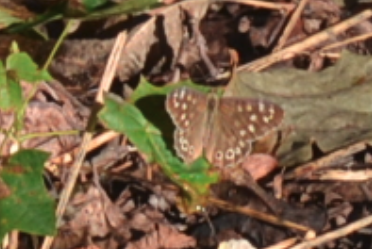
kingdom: Animalia
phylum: Arthropoda
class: Insecta
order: Lepidoptera
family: Nymphalidae
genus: Pararge
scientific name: Pararge aegeria
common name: Speckled wood
